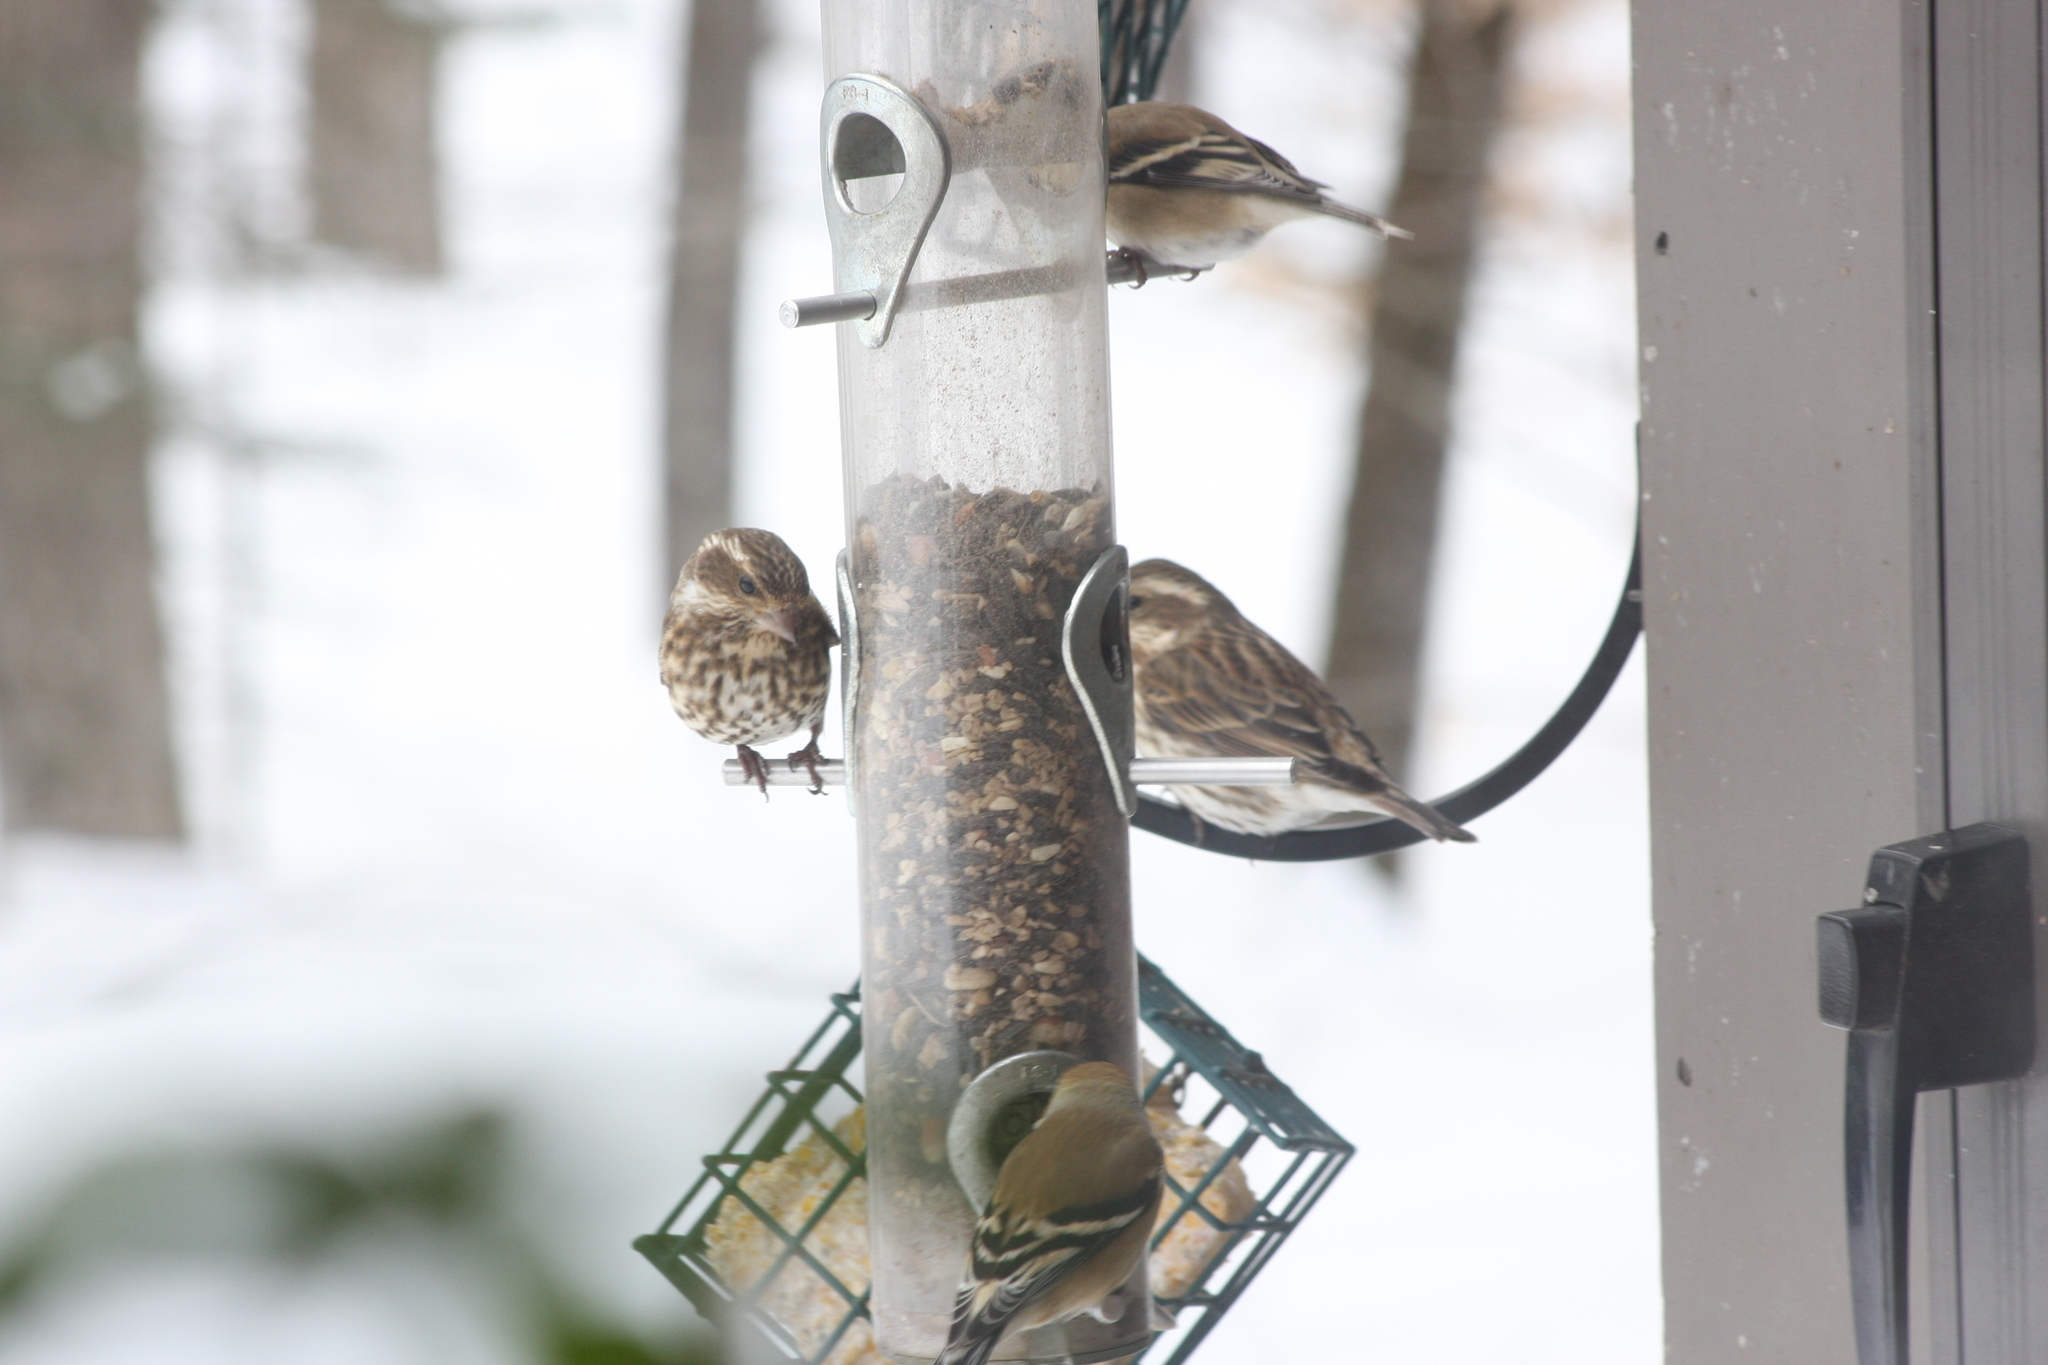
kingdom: Animalia
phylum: Chordata
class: Aves
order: Passeriformes
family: Fringillidae
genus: Haemorhous
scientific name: Haemorhous purpureus
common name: Purple finch
